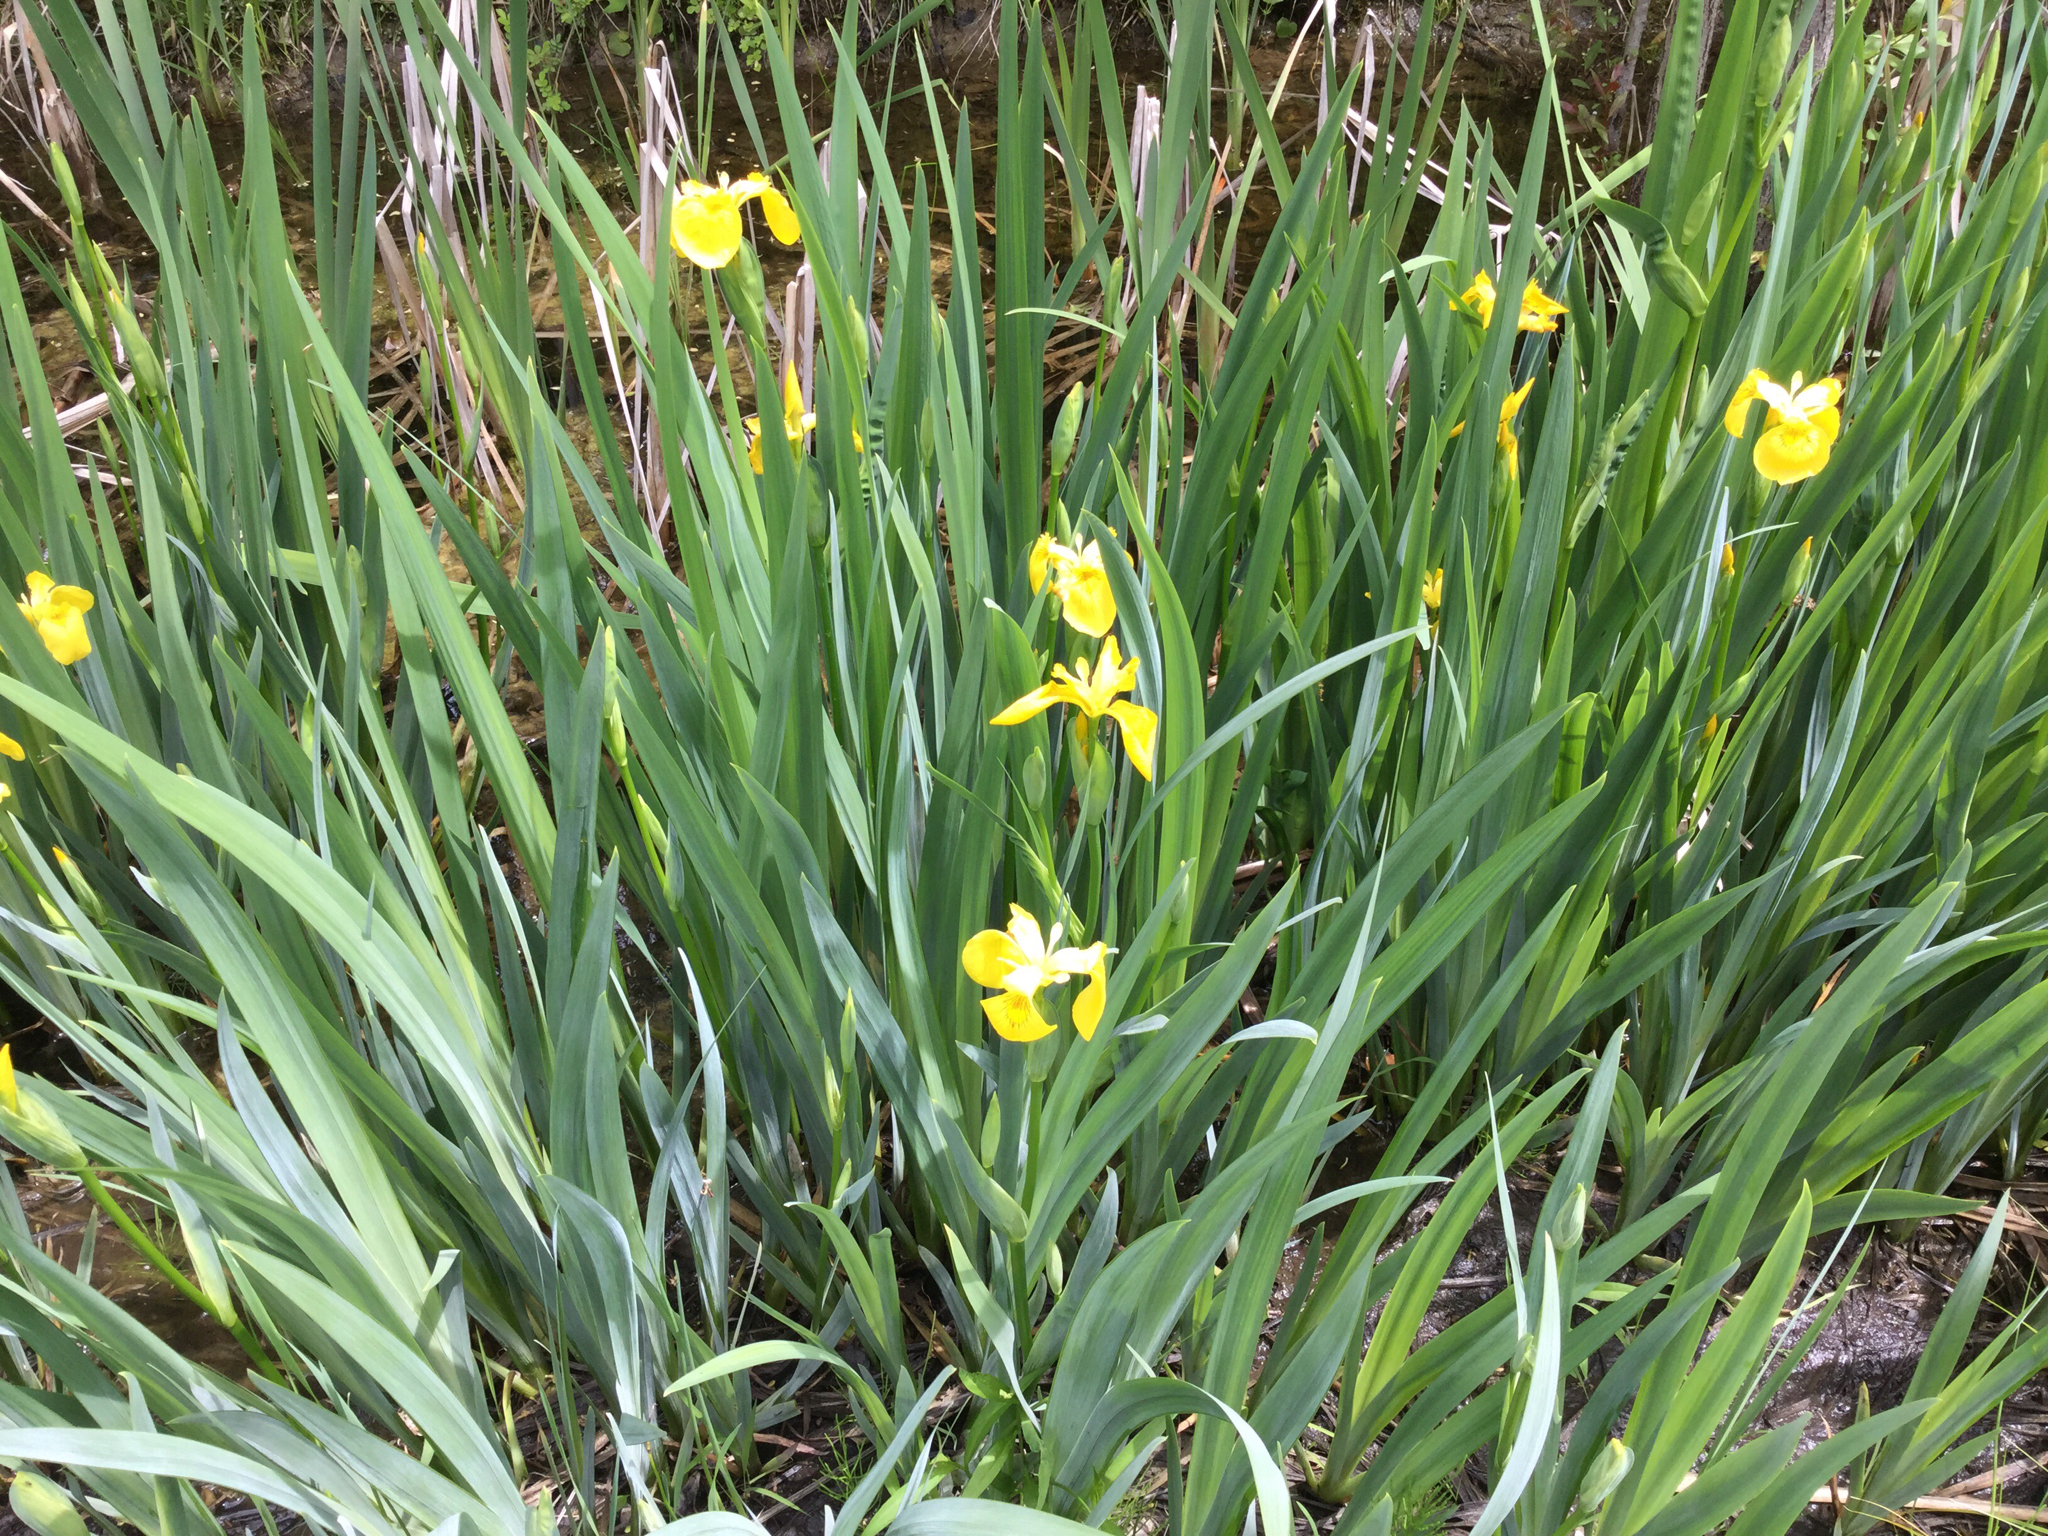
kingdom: Plantae
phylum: Tracheophyta
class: Liliopsida
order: Asparagales
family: Iridaceae
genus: Iris
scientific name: Iris pseudacorus
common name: Yellow flag
